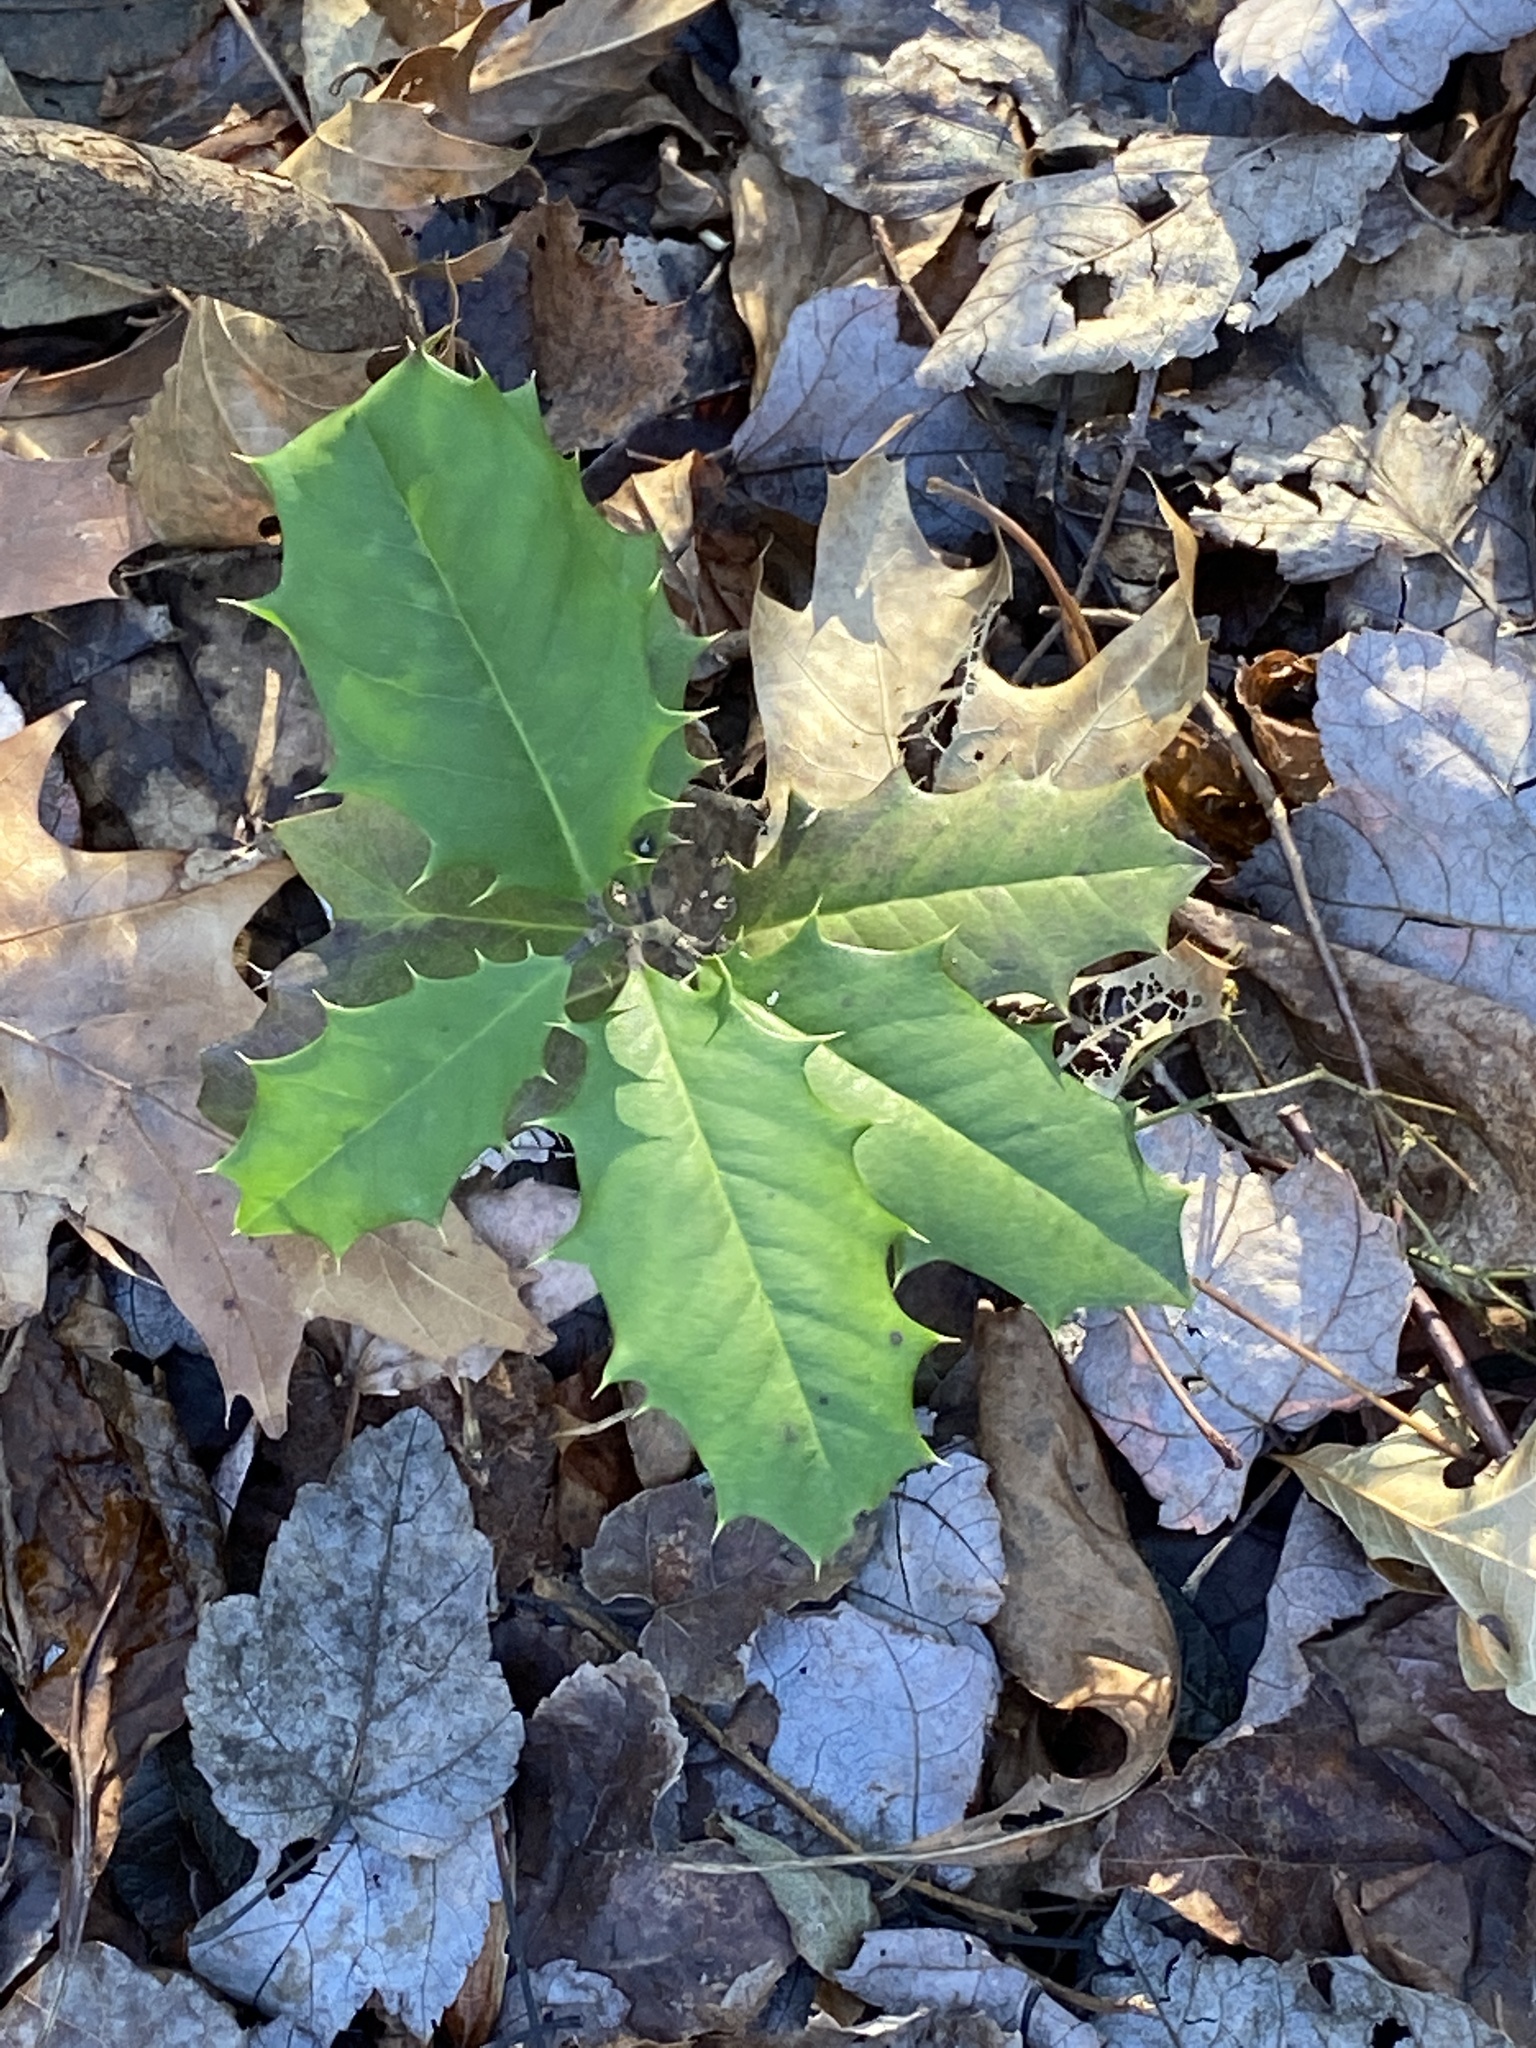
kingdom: Plantae
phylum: Tracheophyta
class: Magnoliopsida
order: Aquifoliales
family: Aquifoliaceae
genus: Ilex
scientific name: Ilex opaca
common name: American holly
